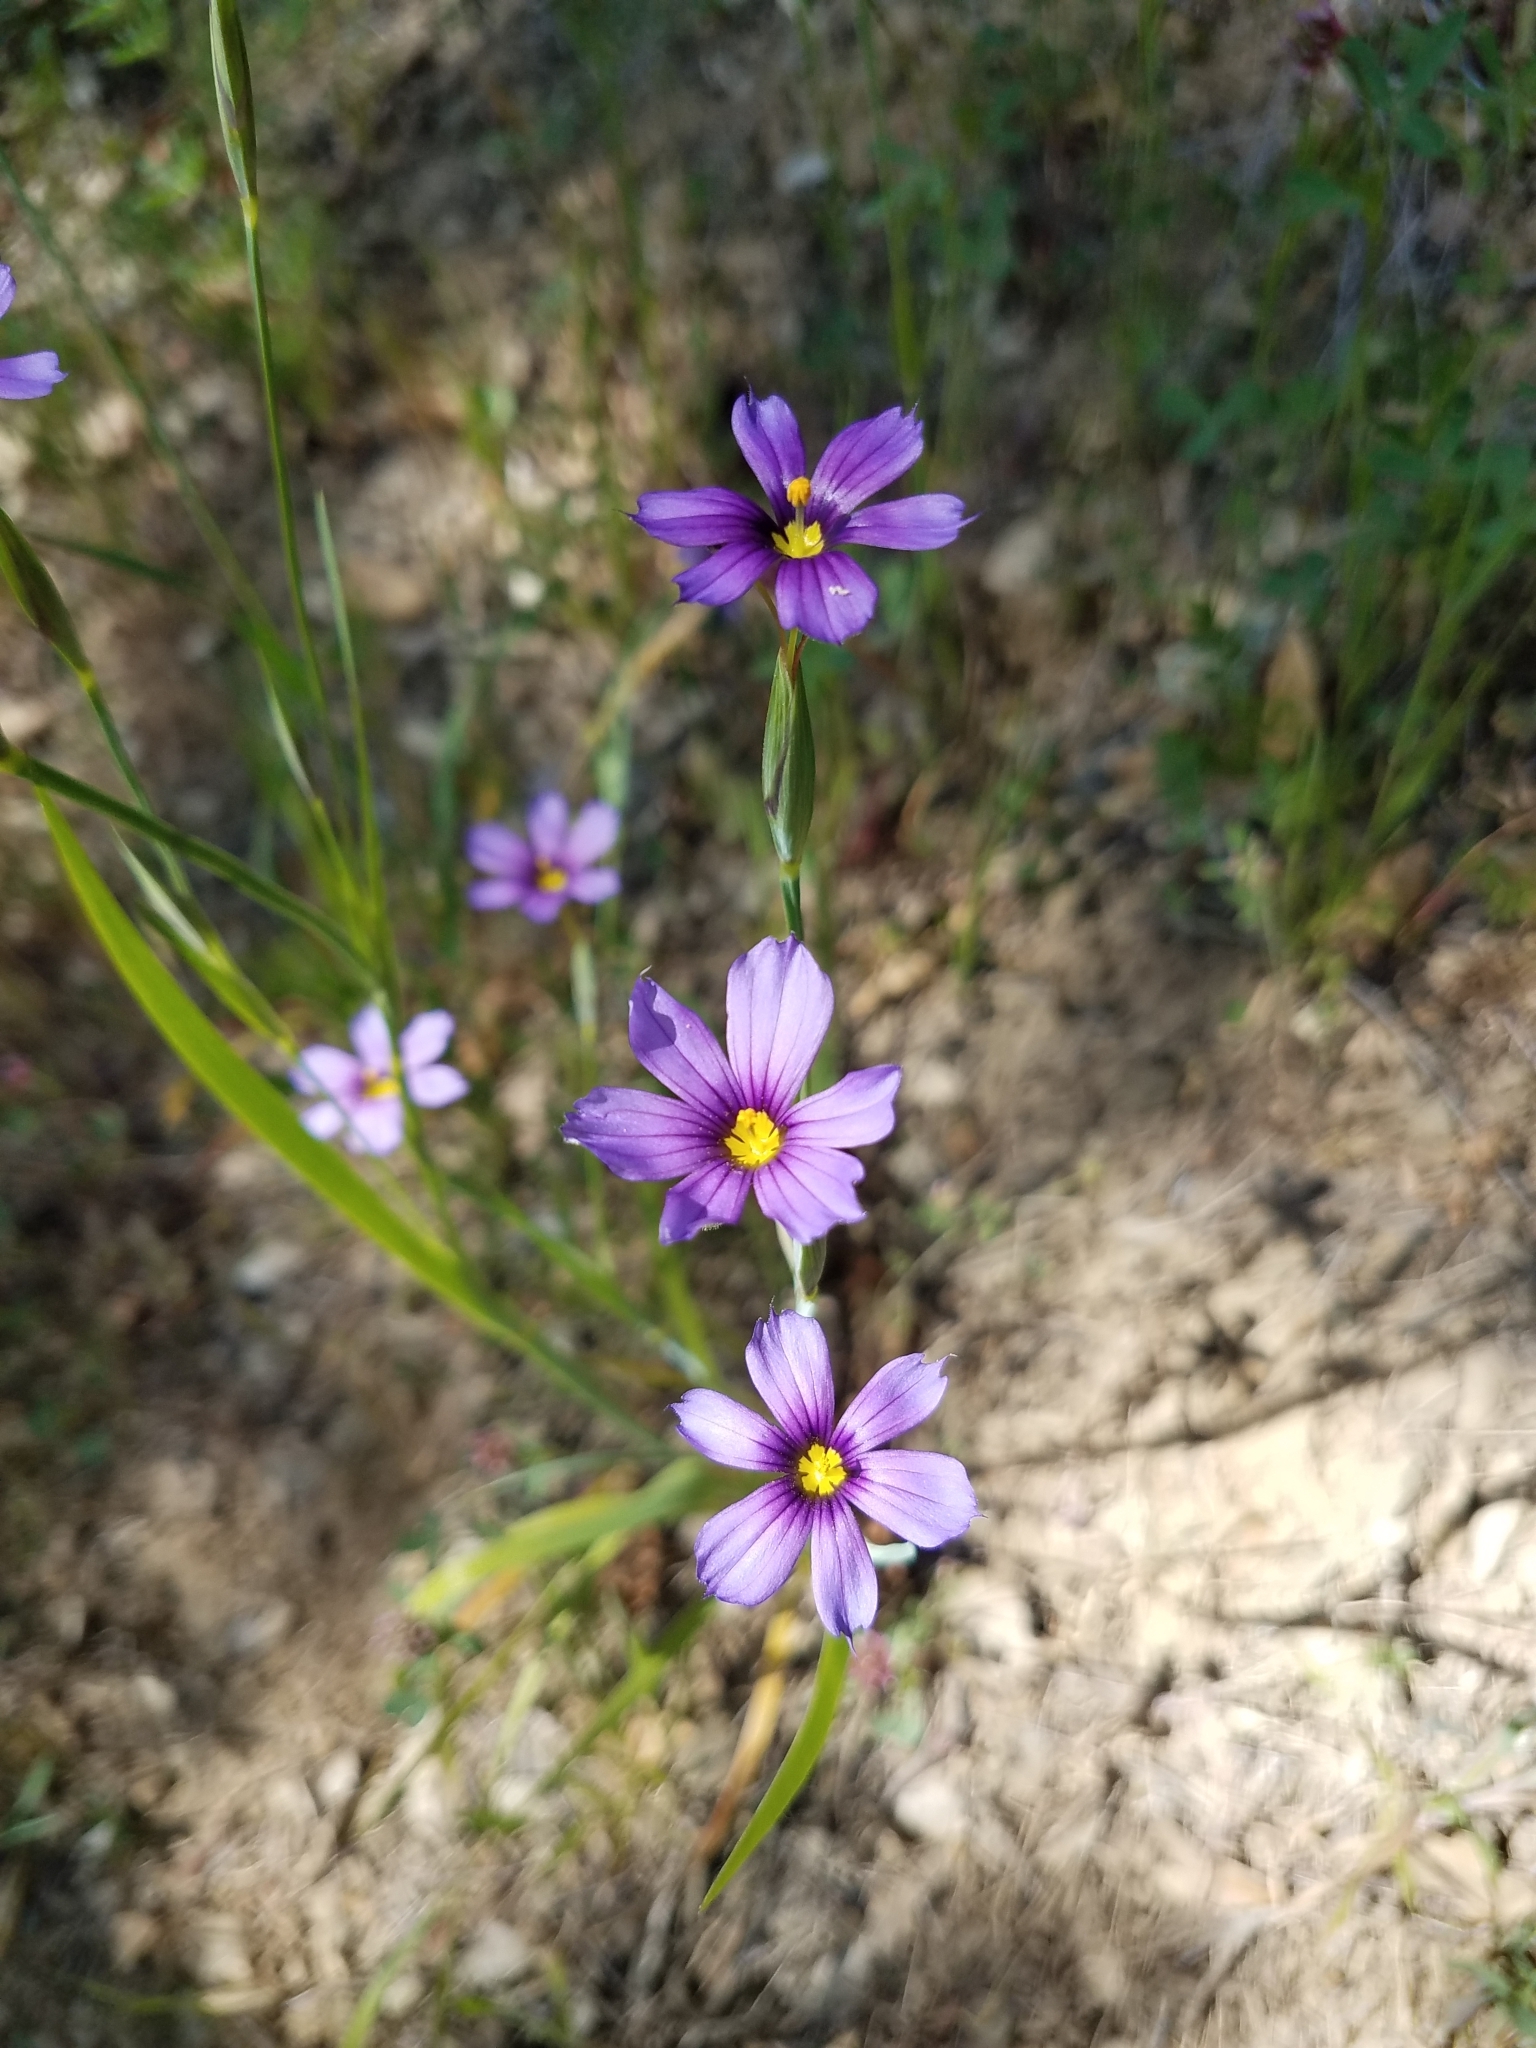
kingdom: Plantae
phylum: Tracheophyta
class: Liliopsida
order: Asparagales
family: Iridaceae
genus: Sisyrinchium
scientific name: Sisyrinchium bellum
